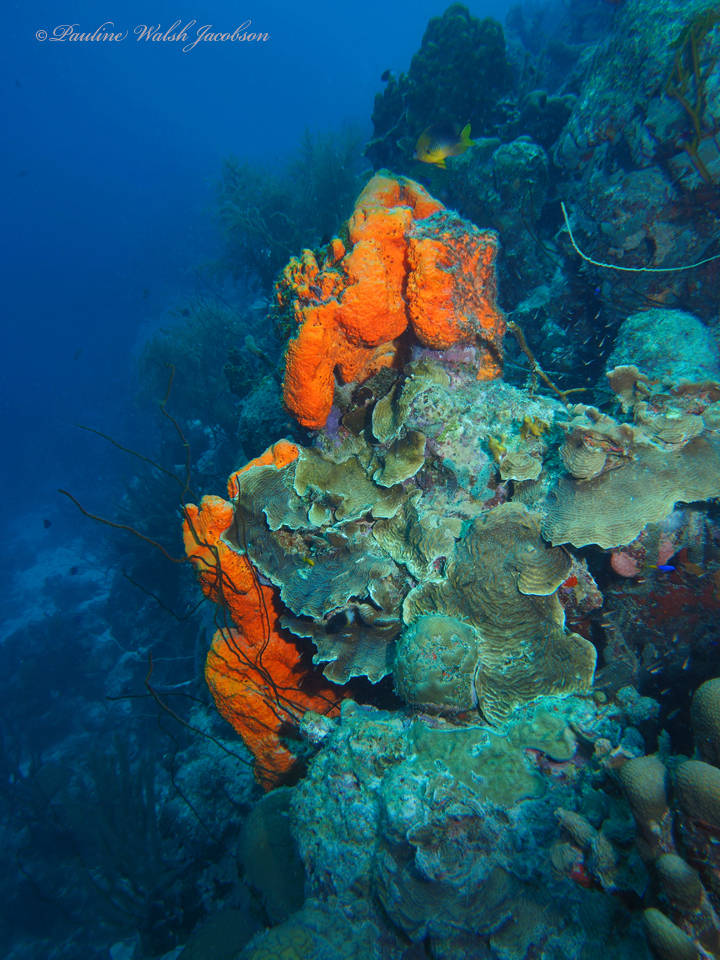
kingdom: Animalia
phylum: Porifera
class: Demospongiae
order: Agelasida
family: Agelasidae
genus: Agelas
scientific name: Agelas clathrodes
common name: Orange elephant ear sponge
